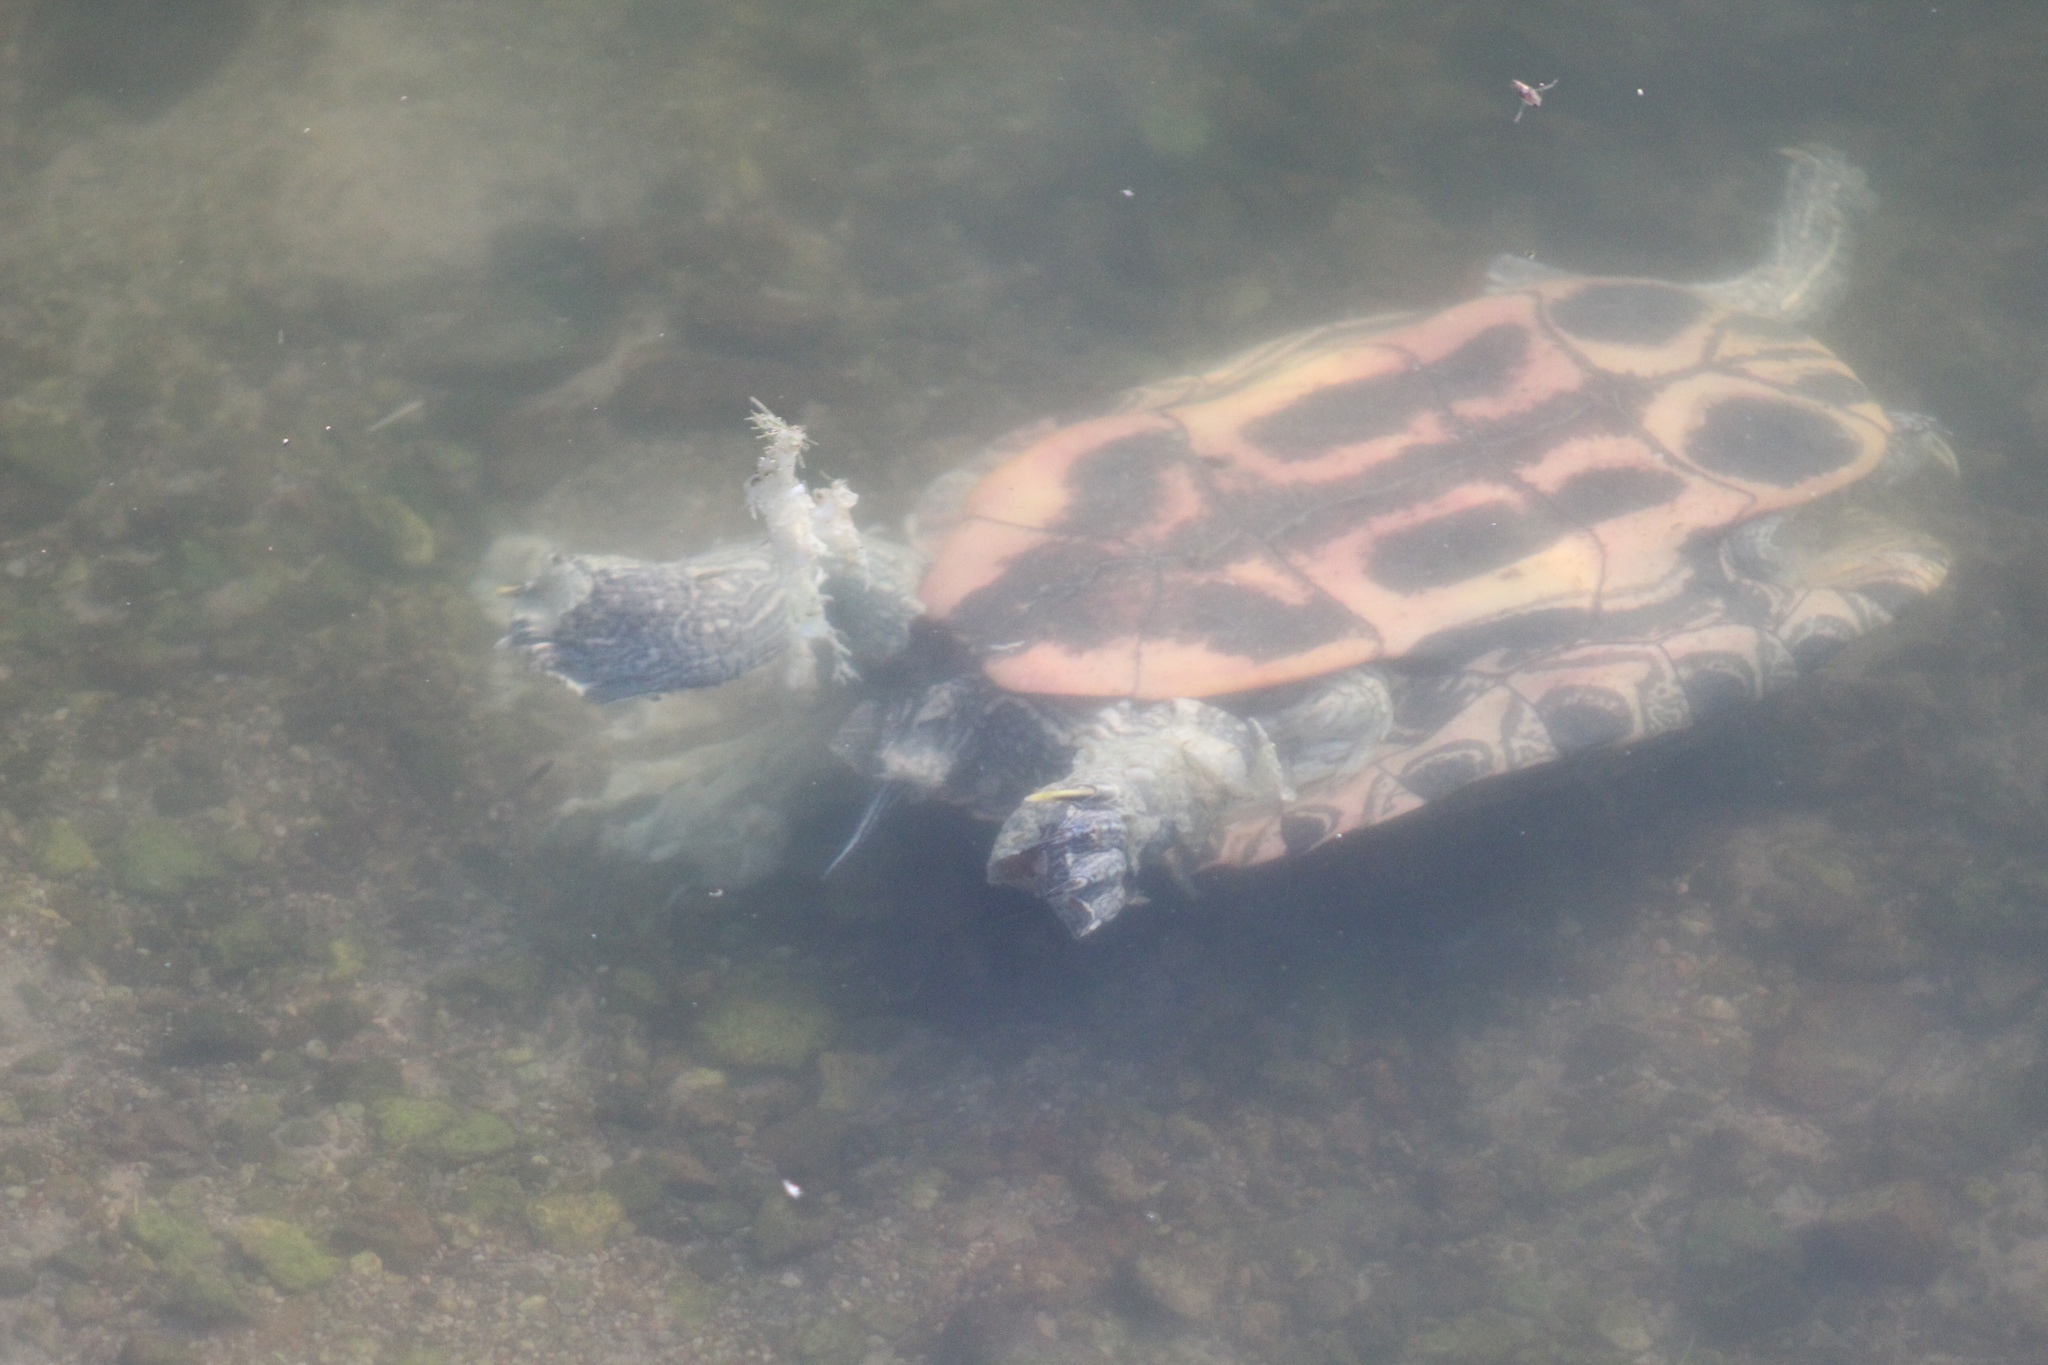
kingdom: Animalia
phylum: Chordata
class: Testudines
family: Emydidae
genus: Trachemys
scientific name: Trachemys scripta
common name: Slider
